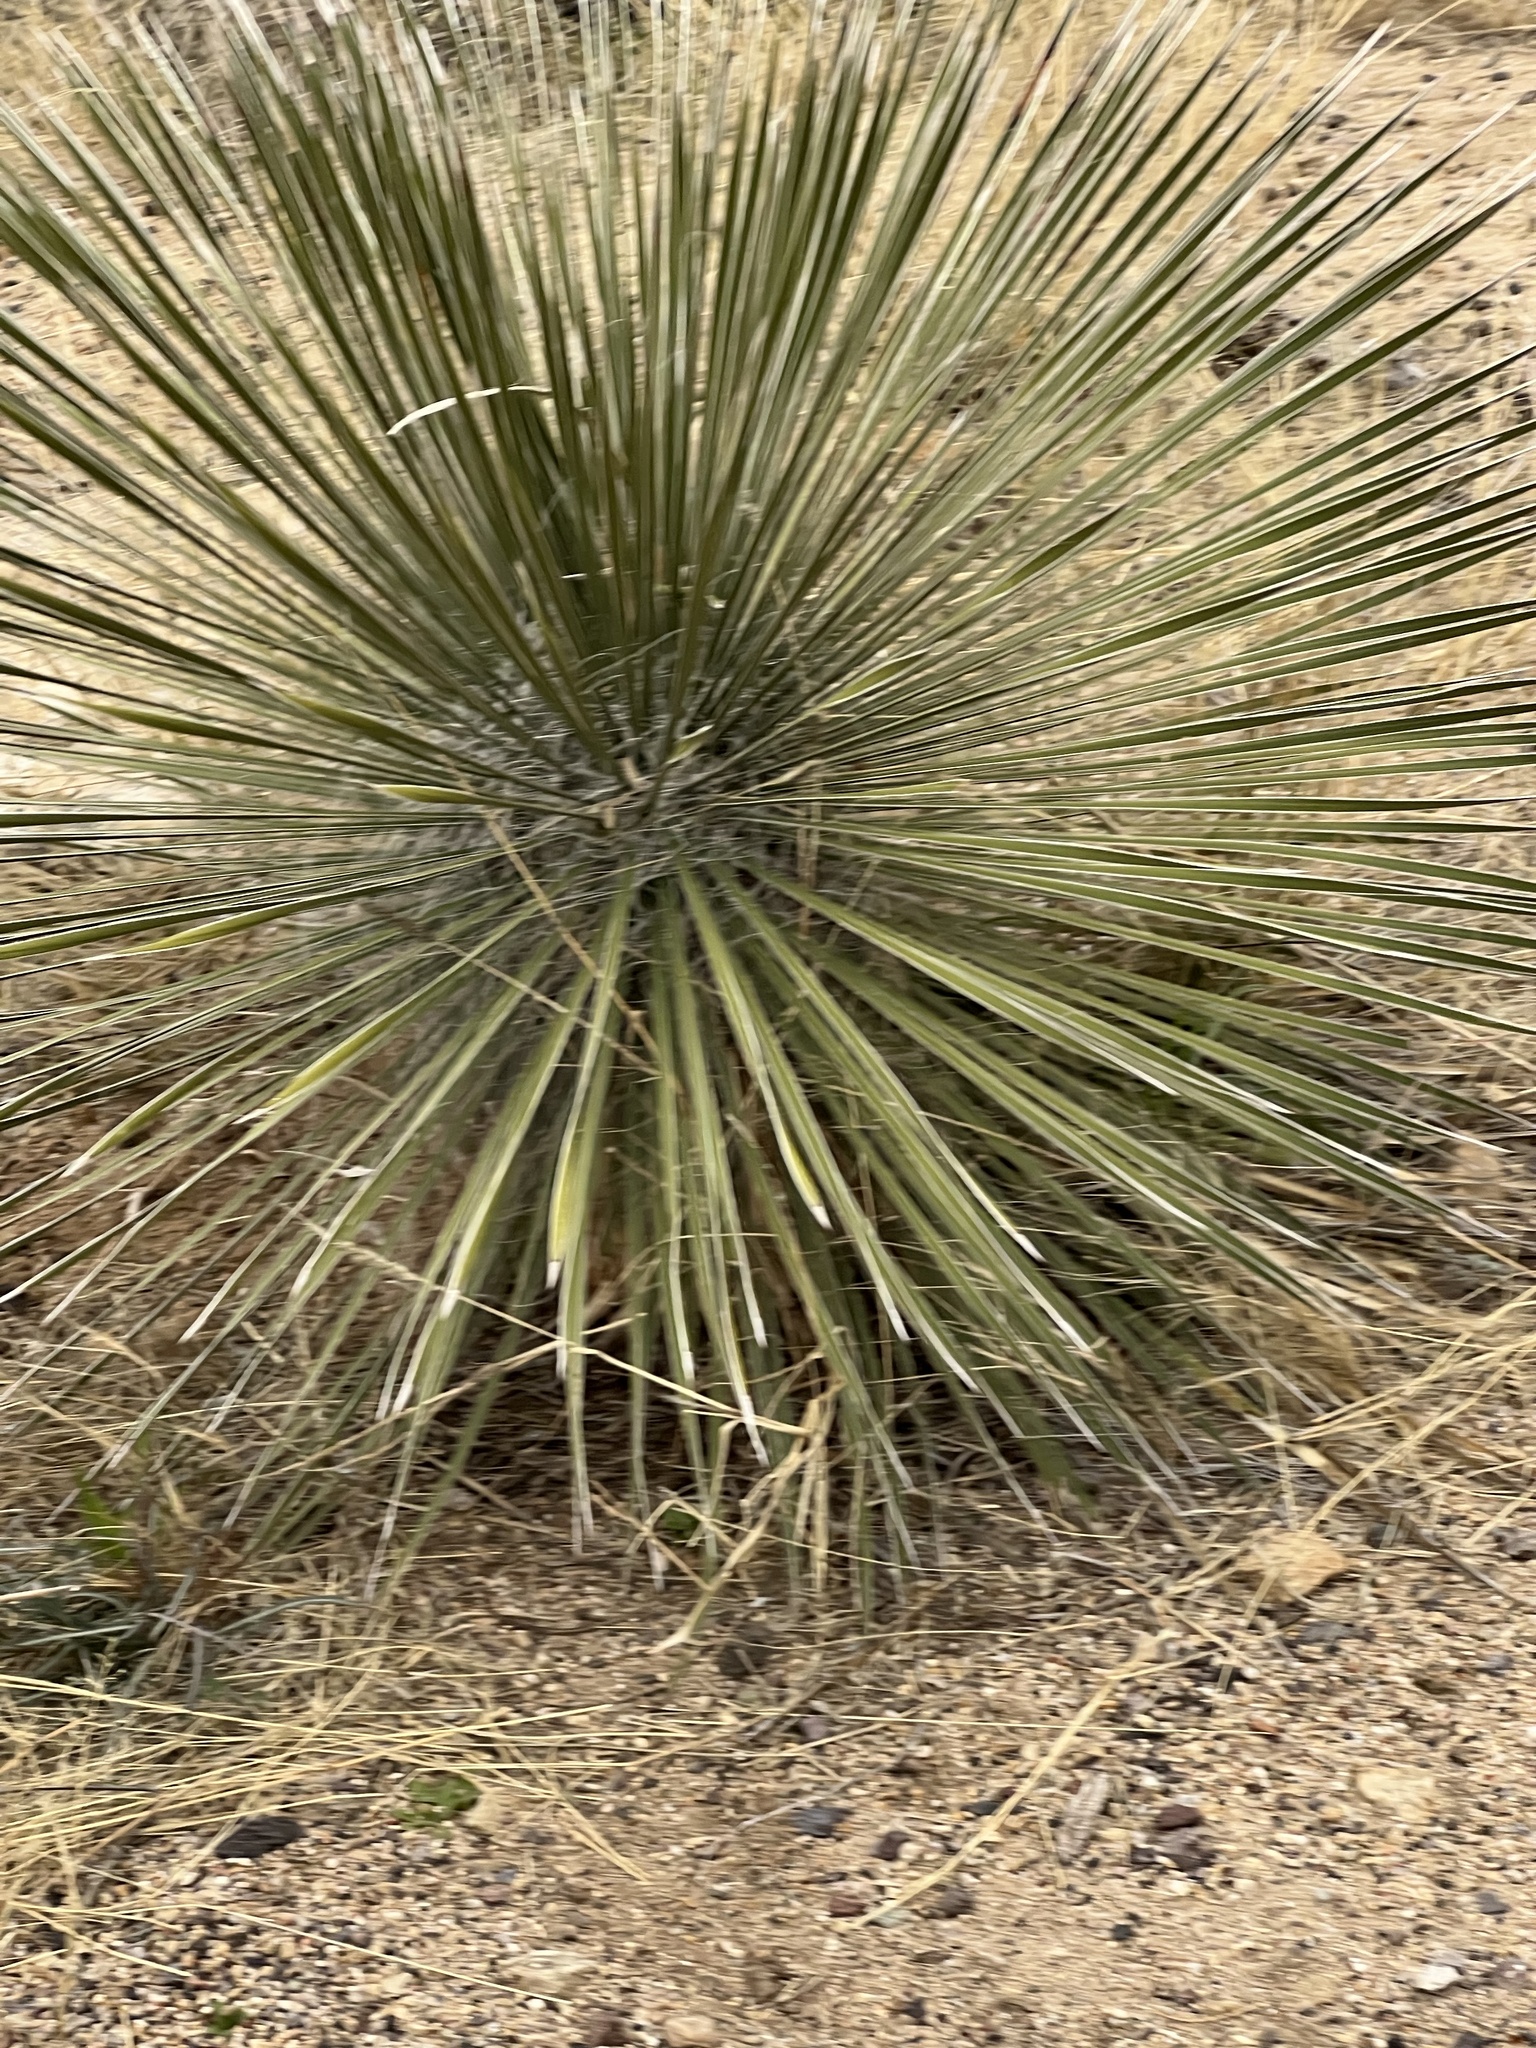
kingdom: Plantae
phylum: Tracheophyta
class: Liliopsida
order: Asparagales
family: Asparagaceae
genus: Yucca
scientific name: Yucca elata
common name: Palmella
